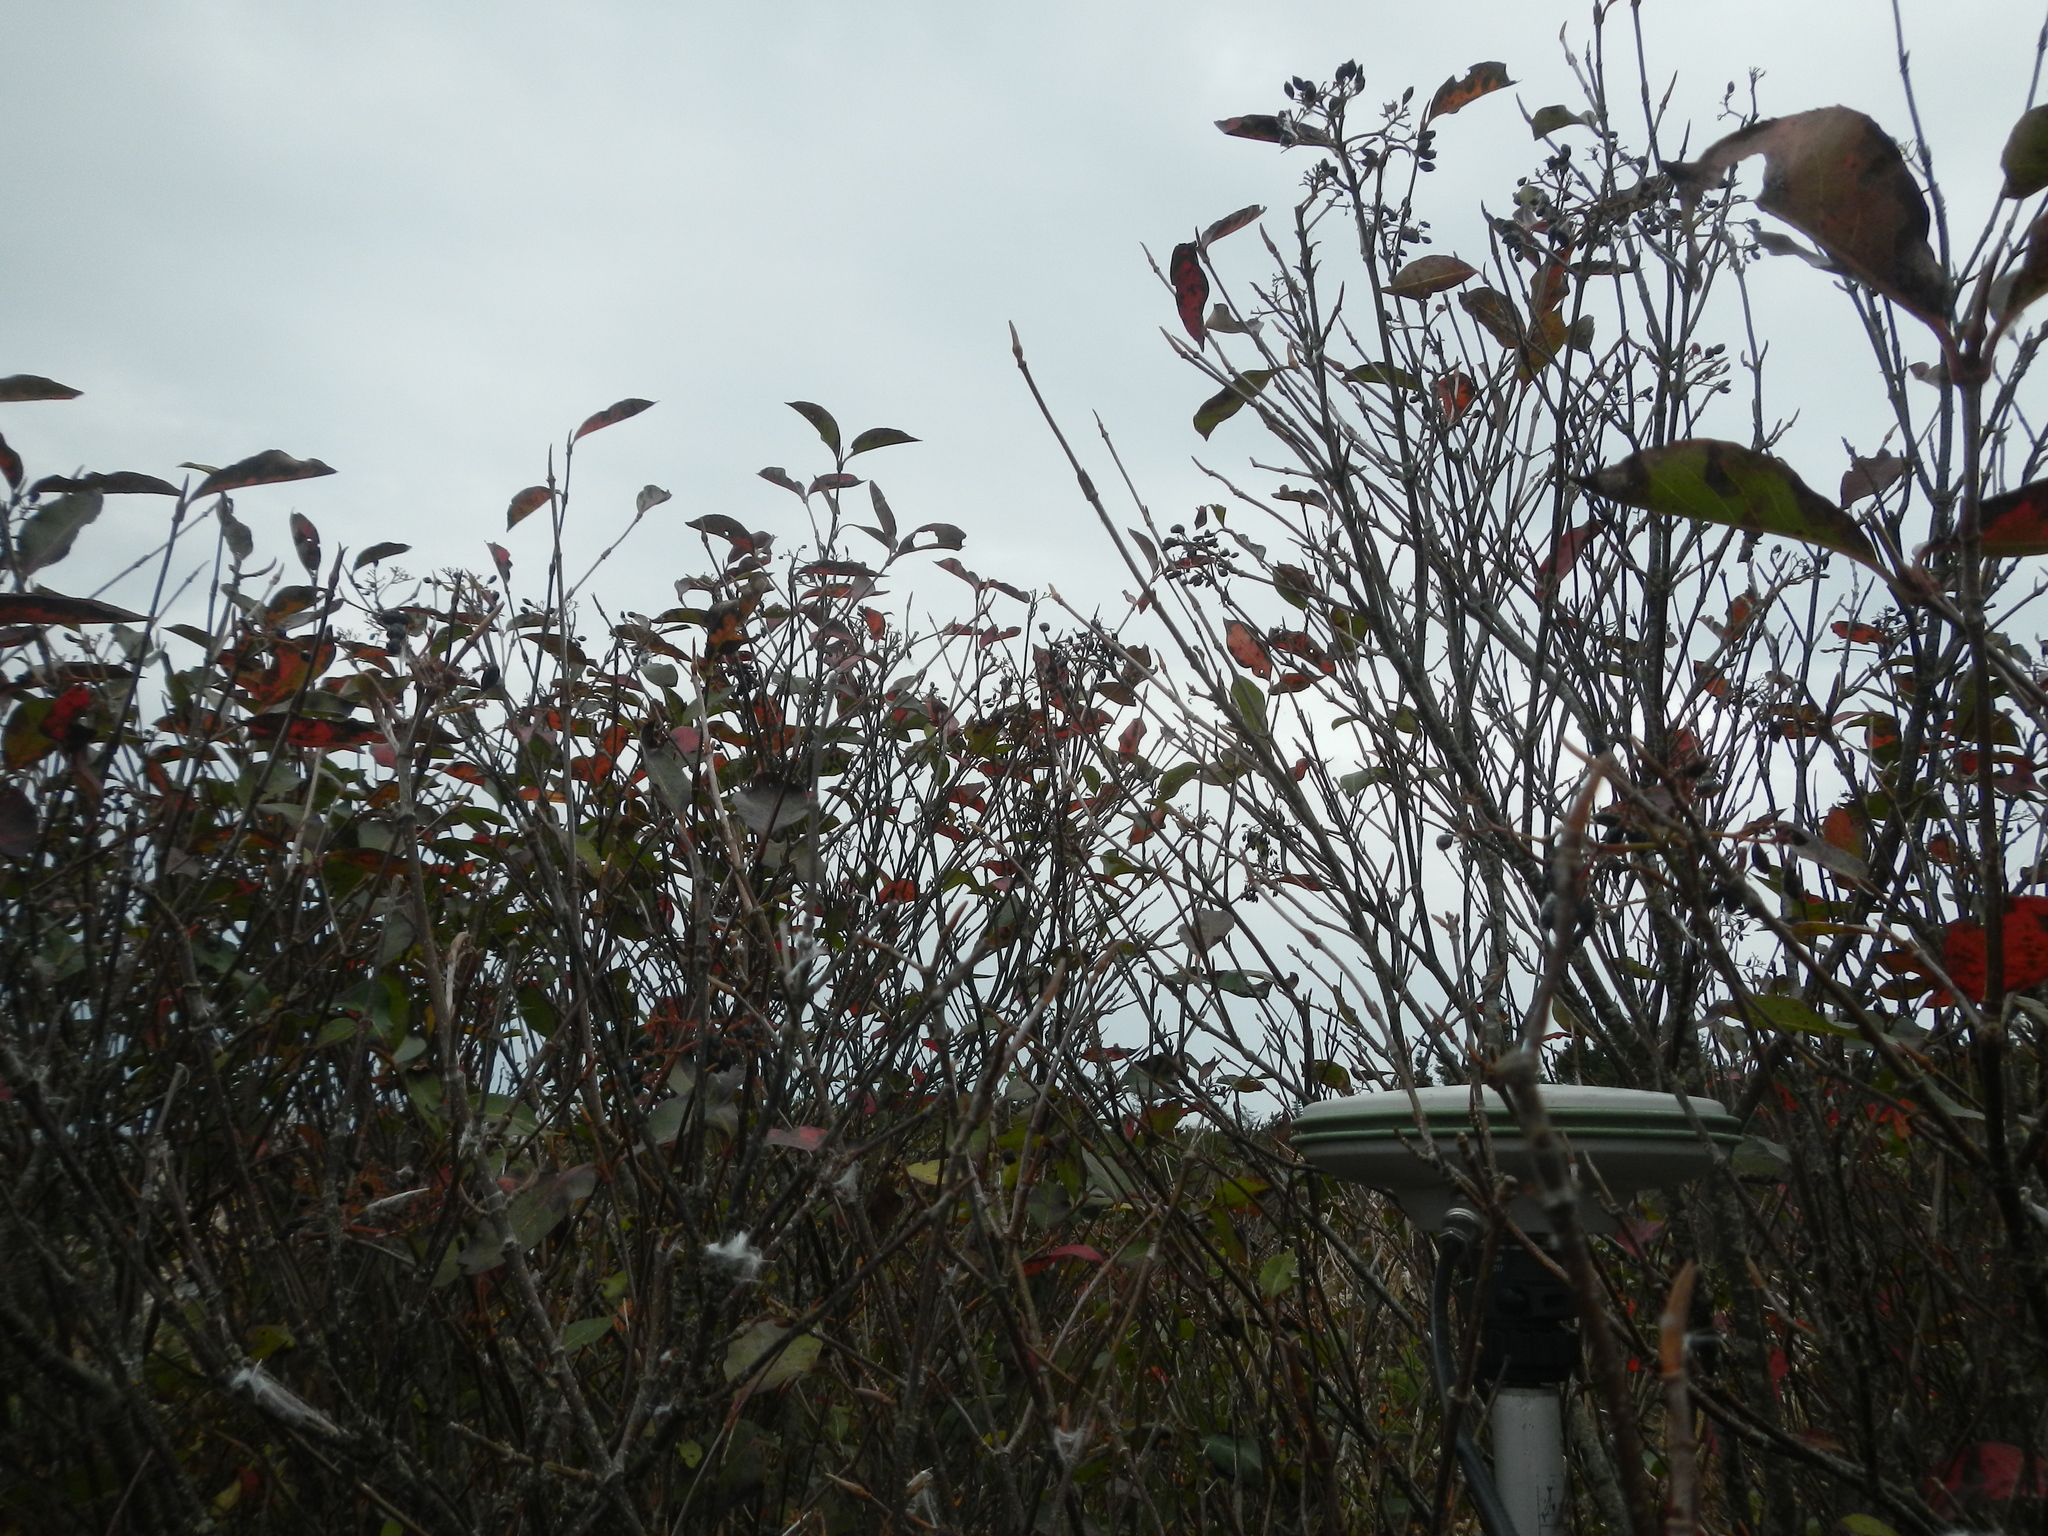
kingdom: Plantae
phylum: Tracheophyta
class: Magnoliopsida
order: Dipsacales
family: Viburnaceae
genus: Viburnum
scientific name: Viburnum cassinoides
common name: Swamp haw
